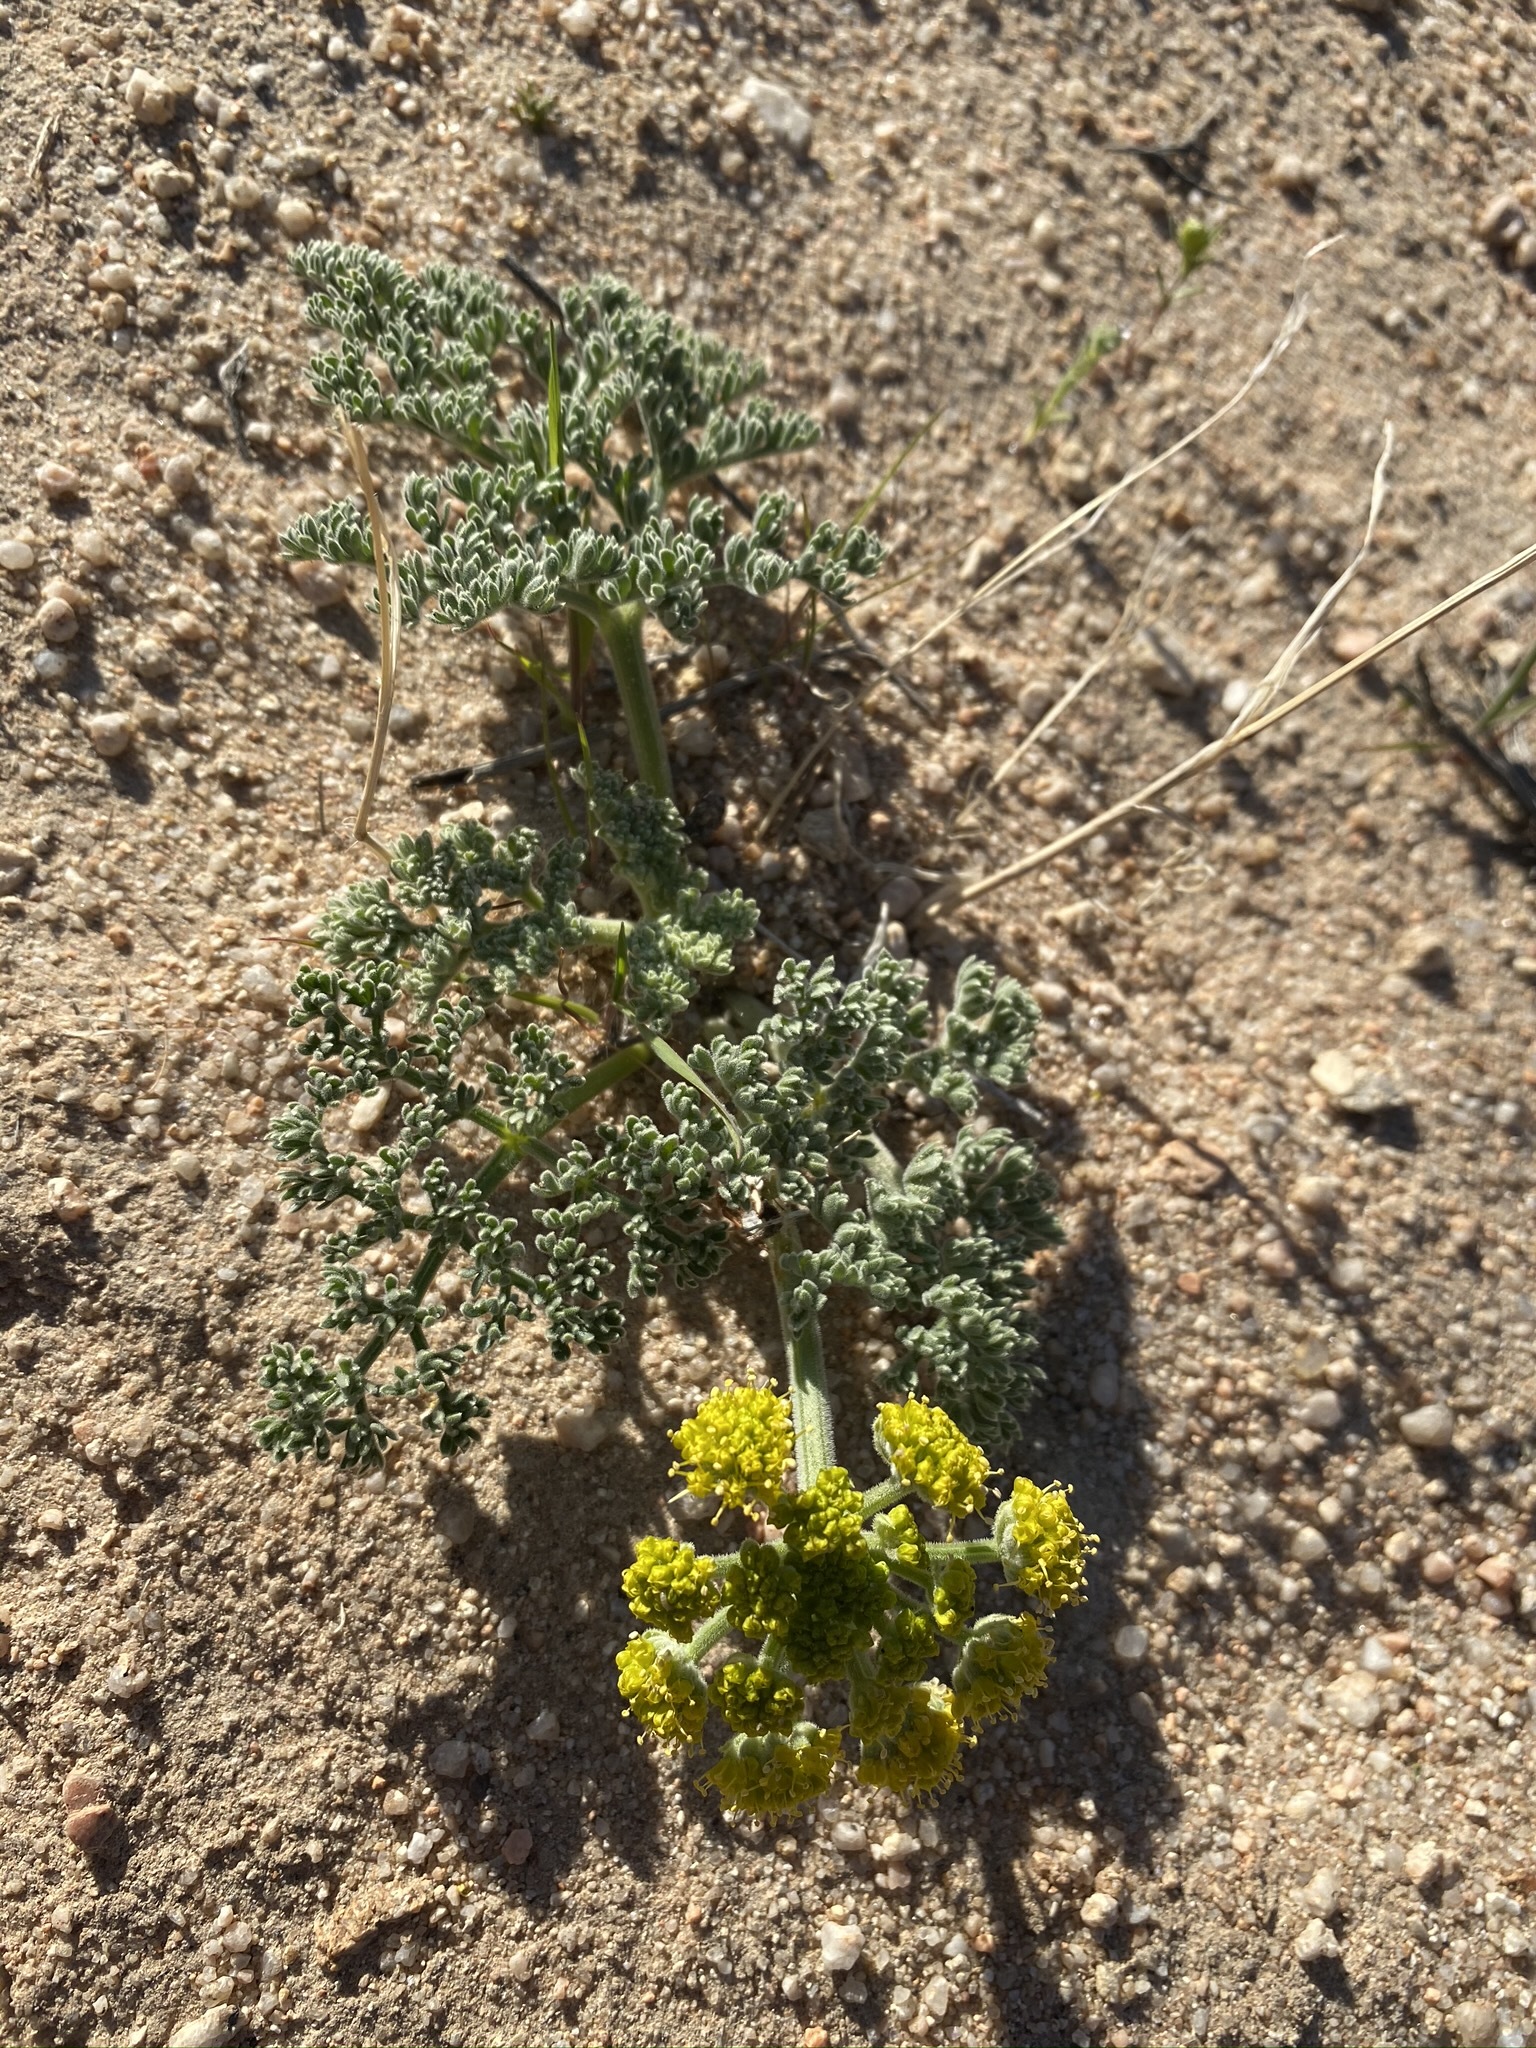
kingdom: Plantae
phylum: Tracheophyta
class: Magnoliopsida
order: Apiales
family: Apiaceae
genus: Lomatium
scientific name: Lomatium mohavense
